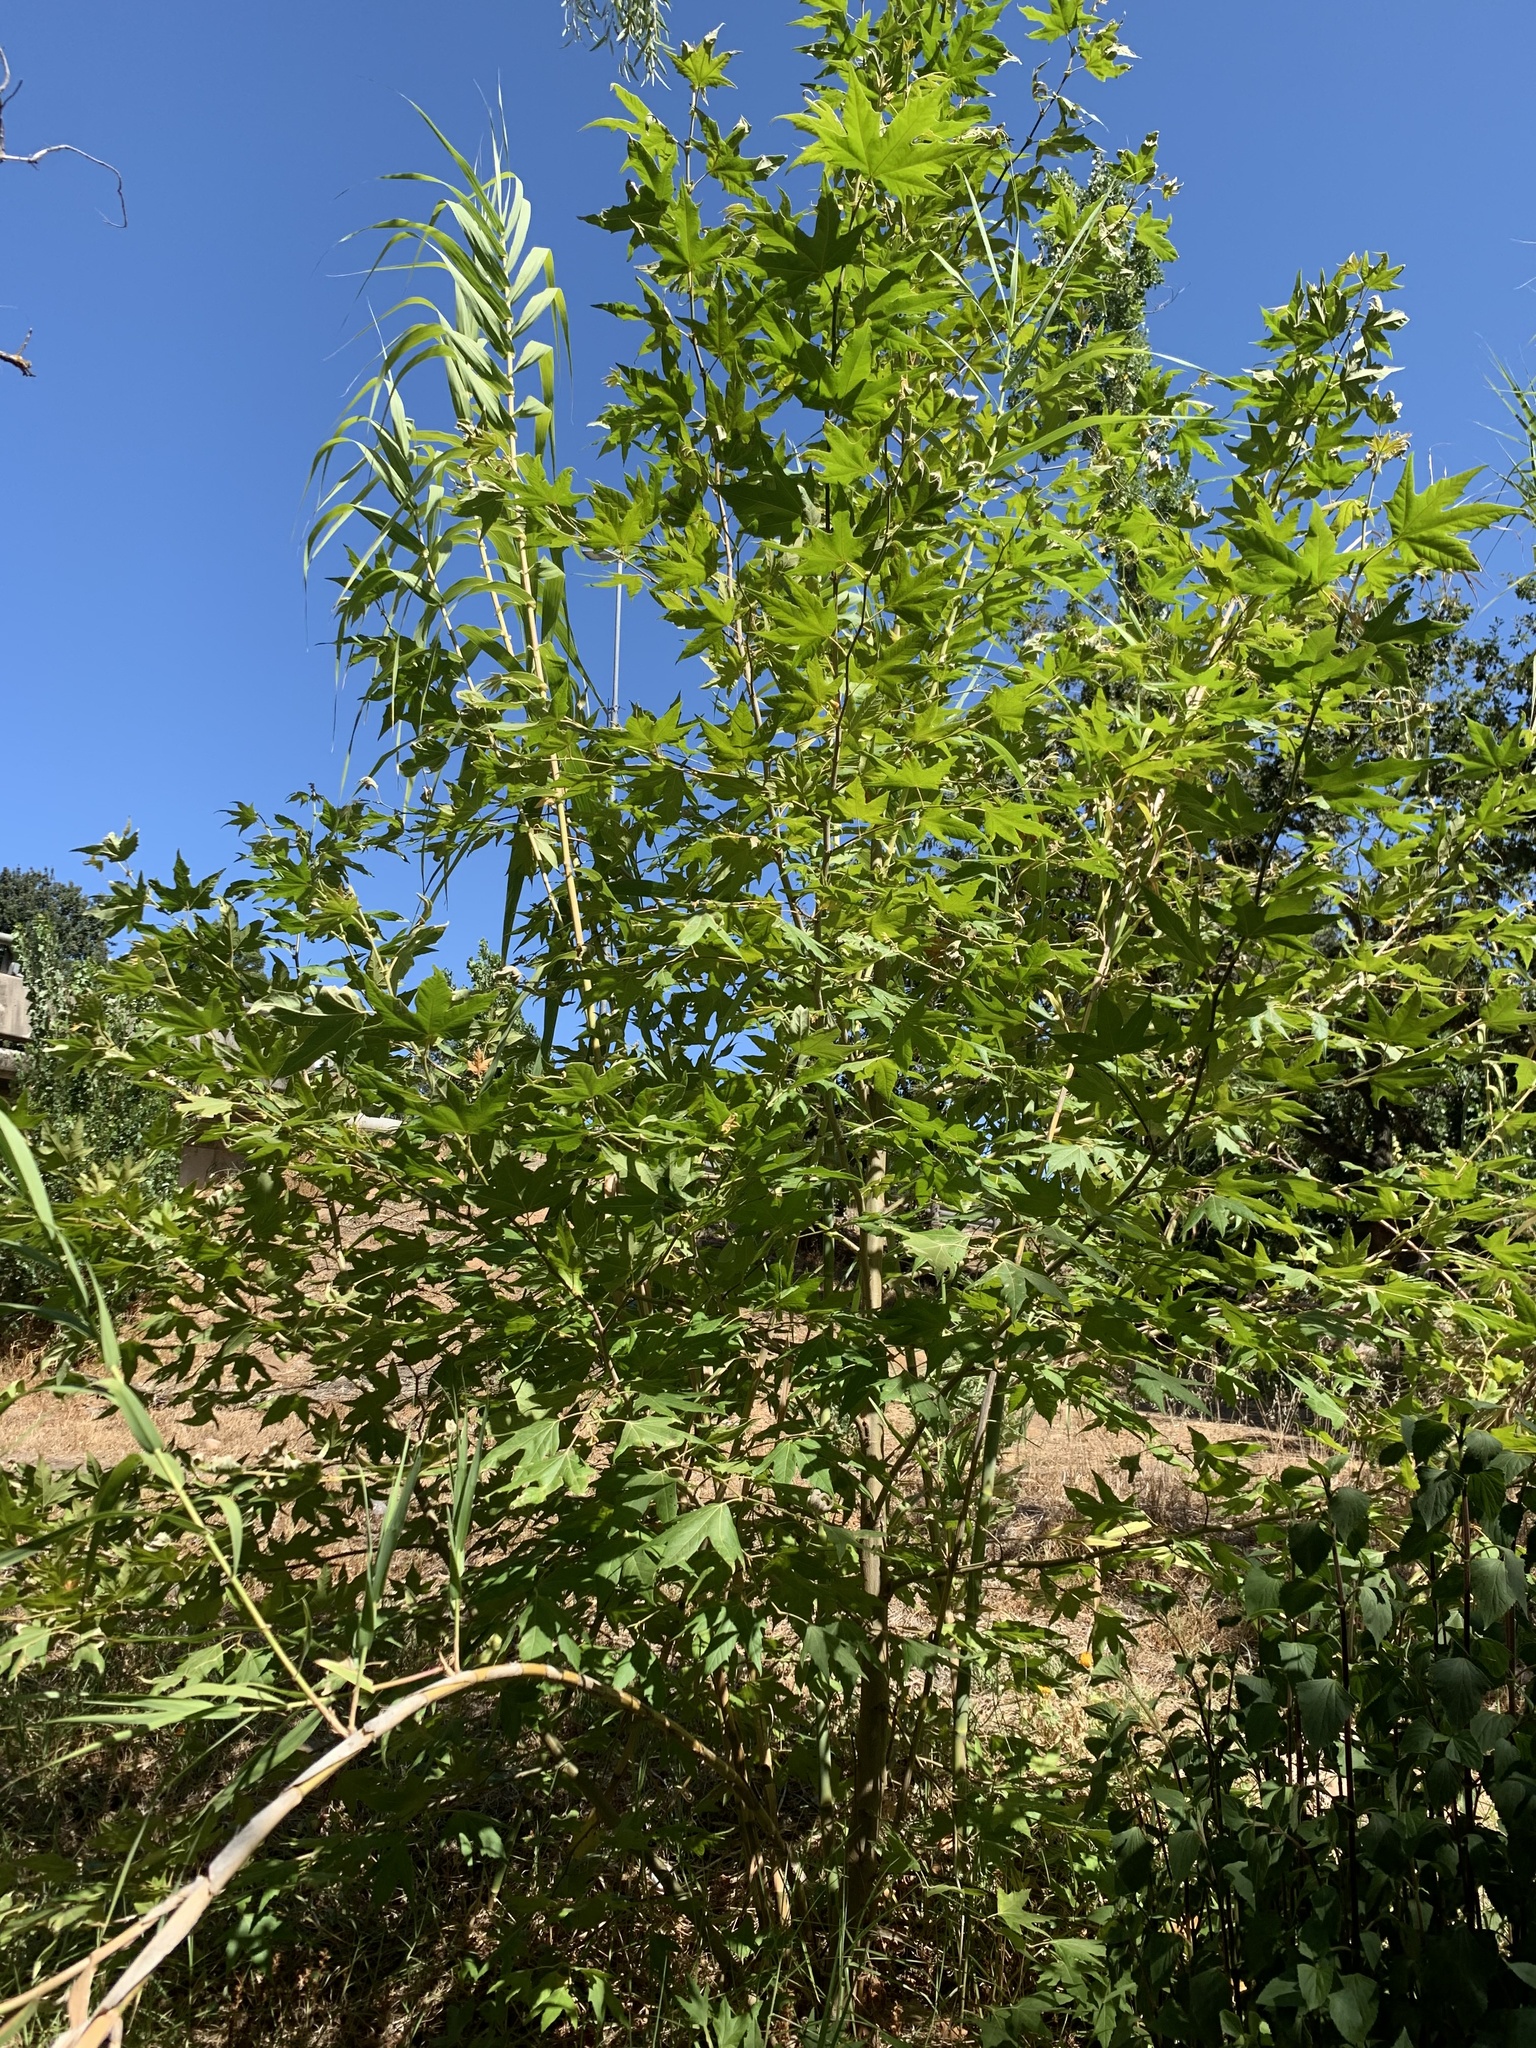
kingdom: Plantae
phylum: Tracheophyta
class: Magnoliopsida
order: Proteales
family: Platanaceae
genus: Platanus
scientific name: Platanus hispanica
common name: London plane
